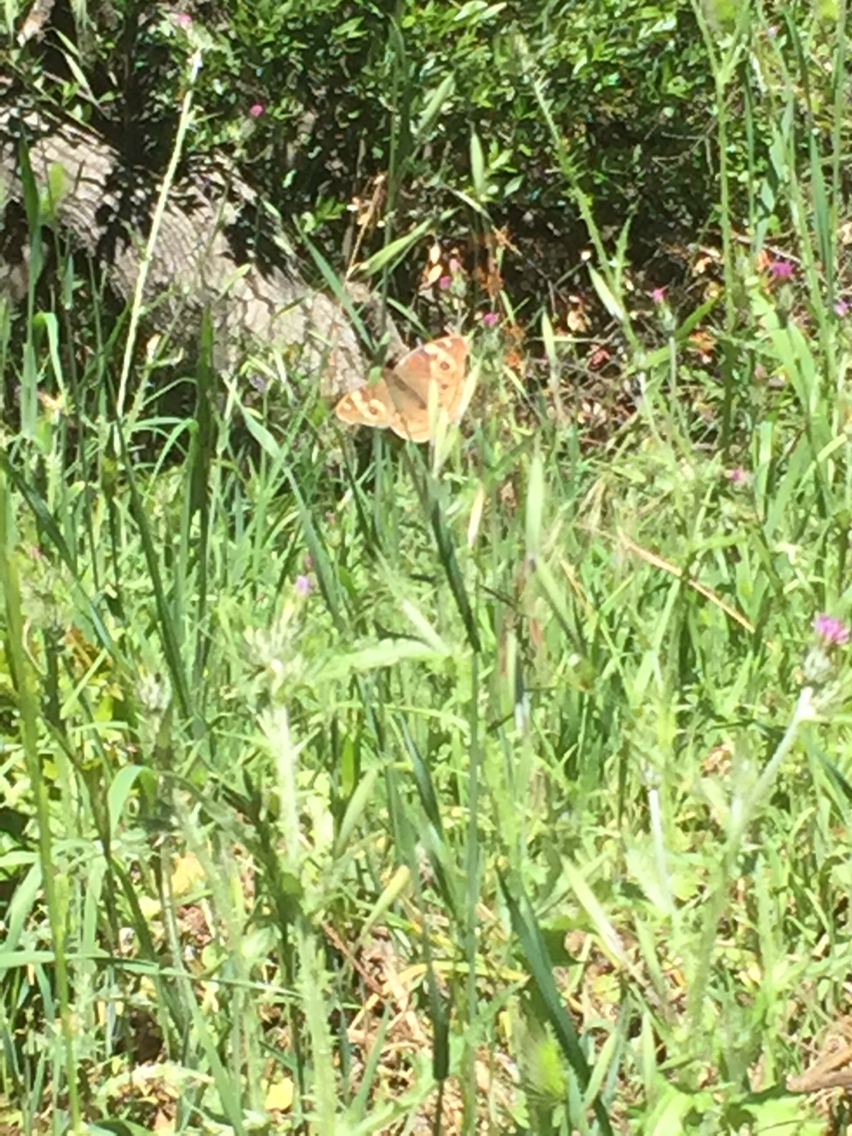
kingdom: Animalia
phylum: Arthropoda
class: Insecta
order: Lepidoptera
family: Nymphalidae
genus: Junonia
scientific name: Junonia grisea
